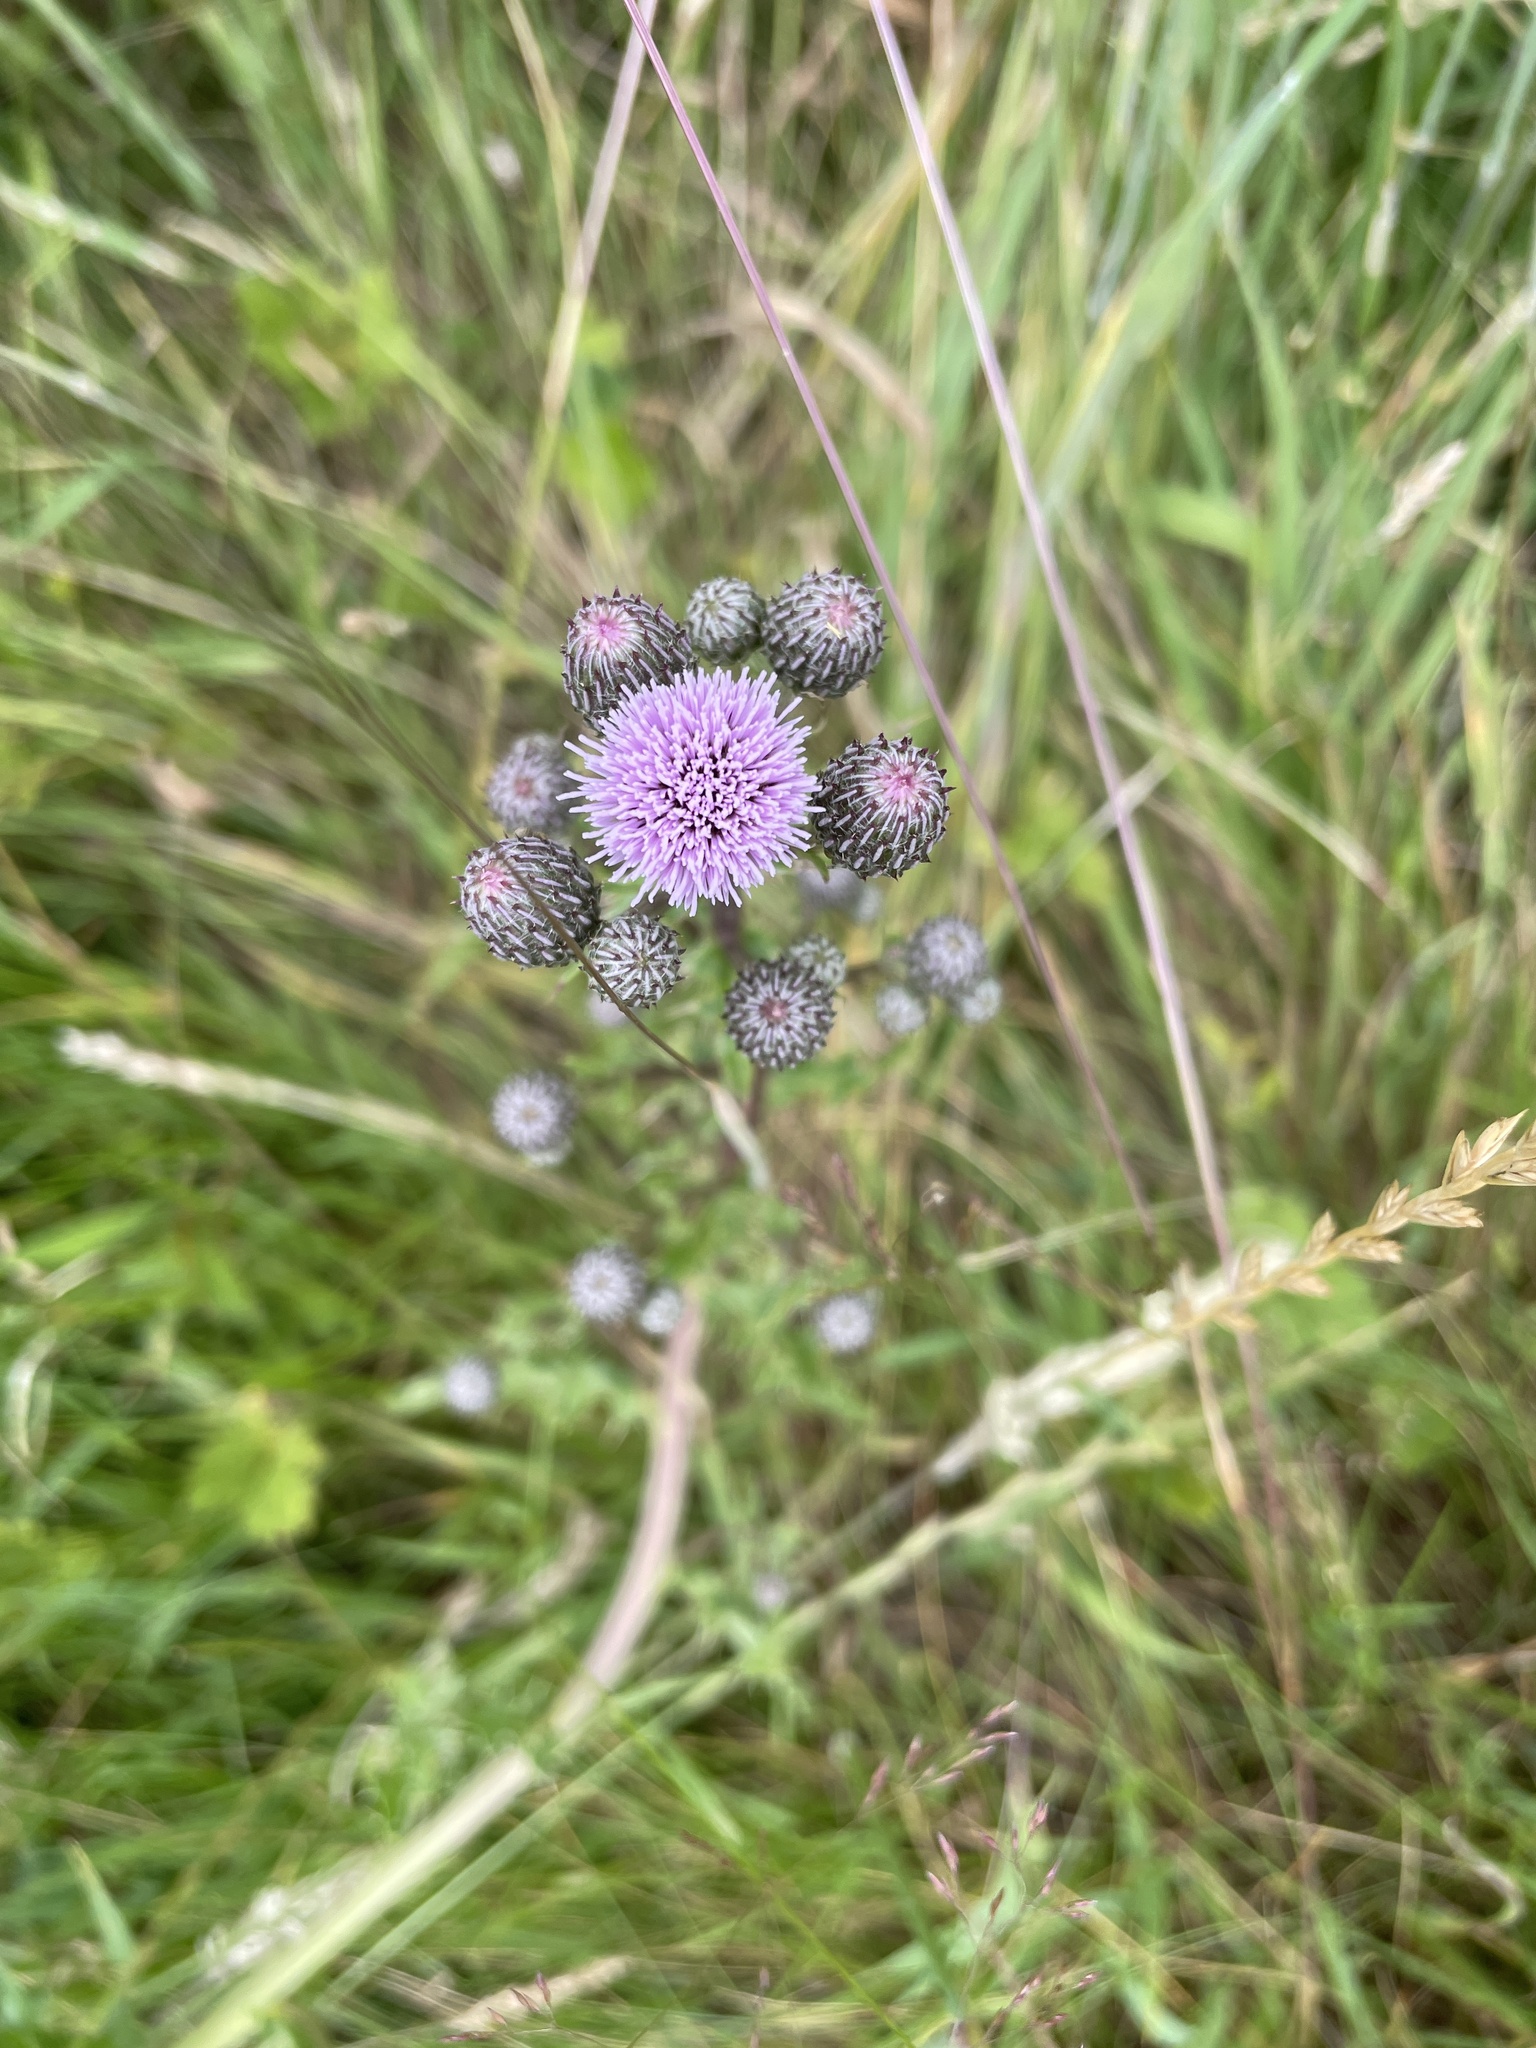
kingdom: Plantae
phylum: Tracheophyta
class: Magnoliopsida
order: Asterales
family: Asteraceae
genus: Cirsium
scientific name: Cirsium arvense
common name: Creeping thistle
